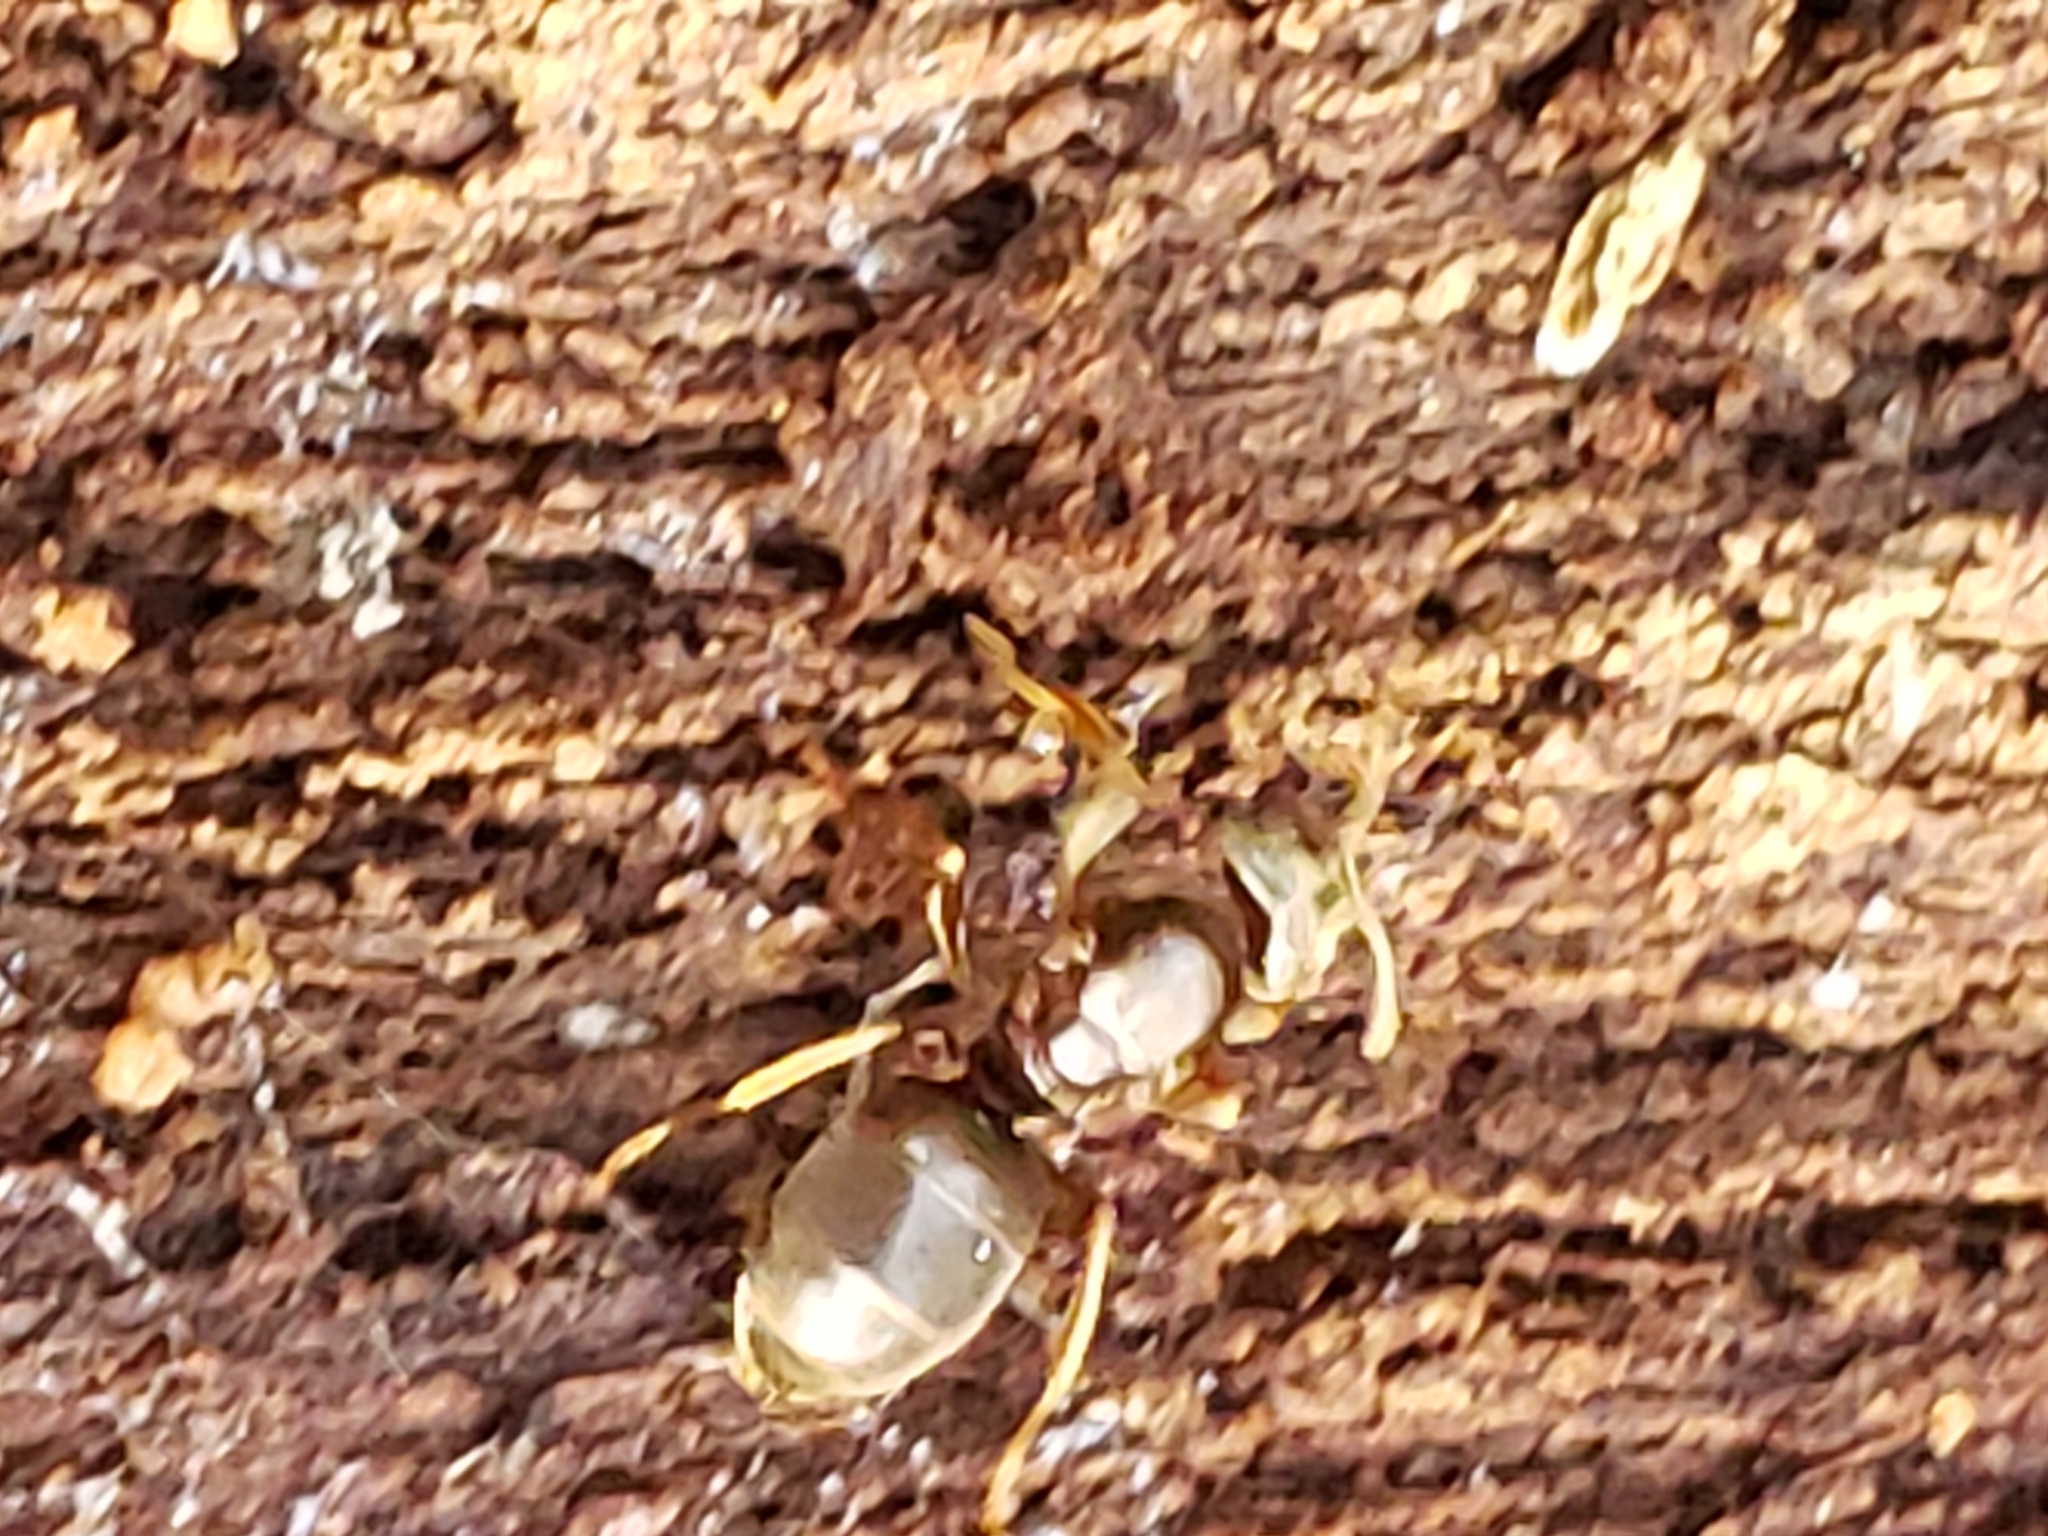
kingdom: Animalia
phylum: Arthropoda
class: Insecta
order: Hymenoptera
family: Formicidae
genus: Lasius
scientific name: Lasius aphidicola
